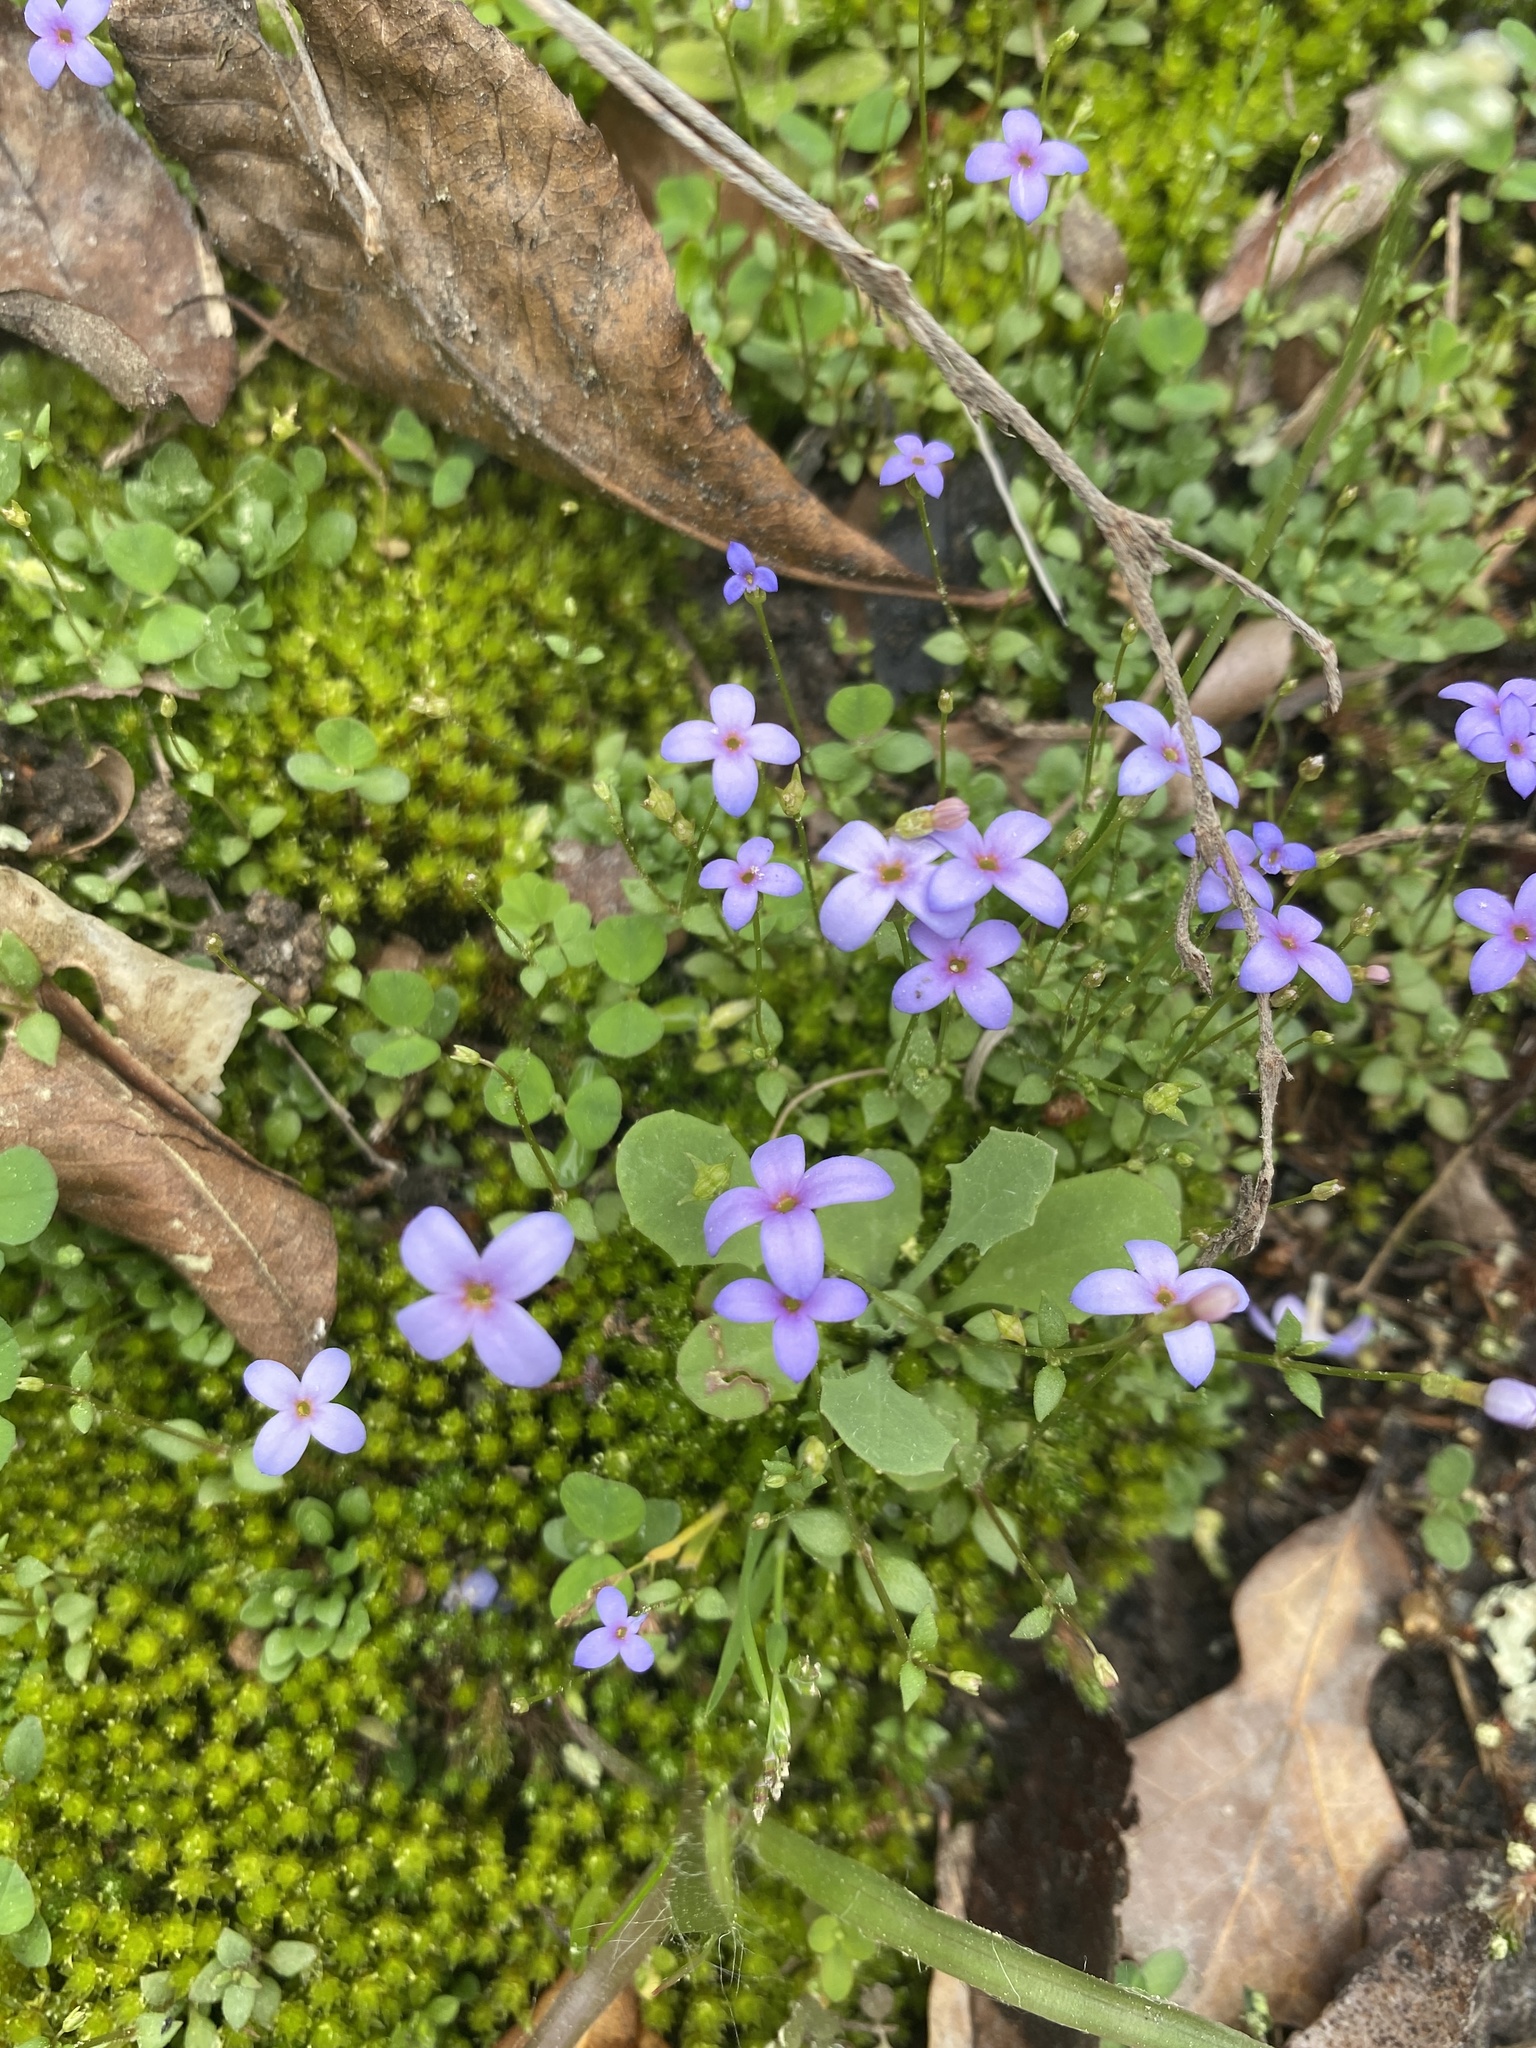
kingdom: Plantae
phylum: Tracheophyta
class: Magnoliopsida
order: Gentianales
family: Rubiaceae
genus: Houstonia
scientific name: Houstonia pusilla
